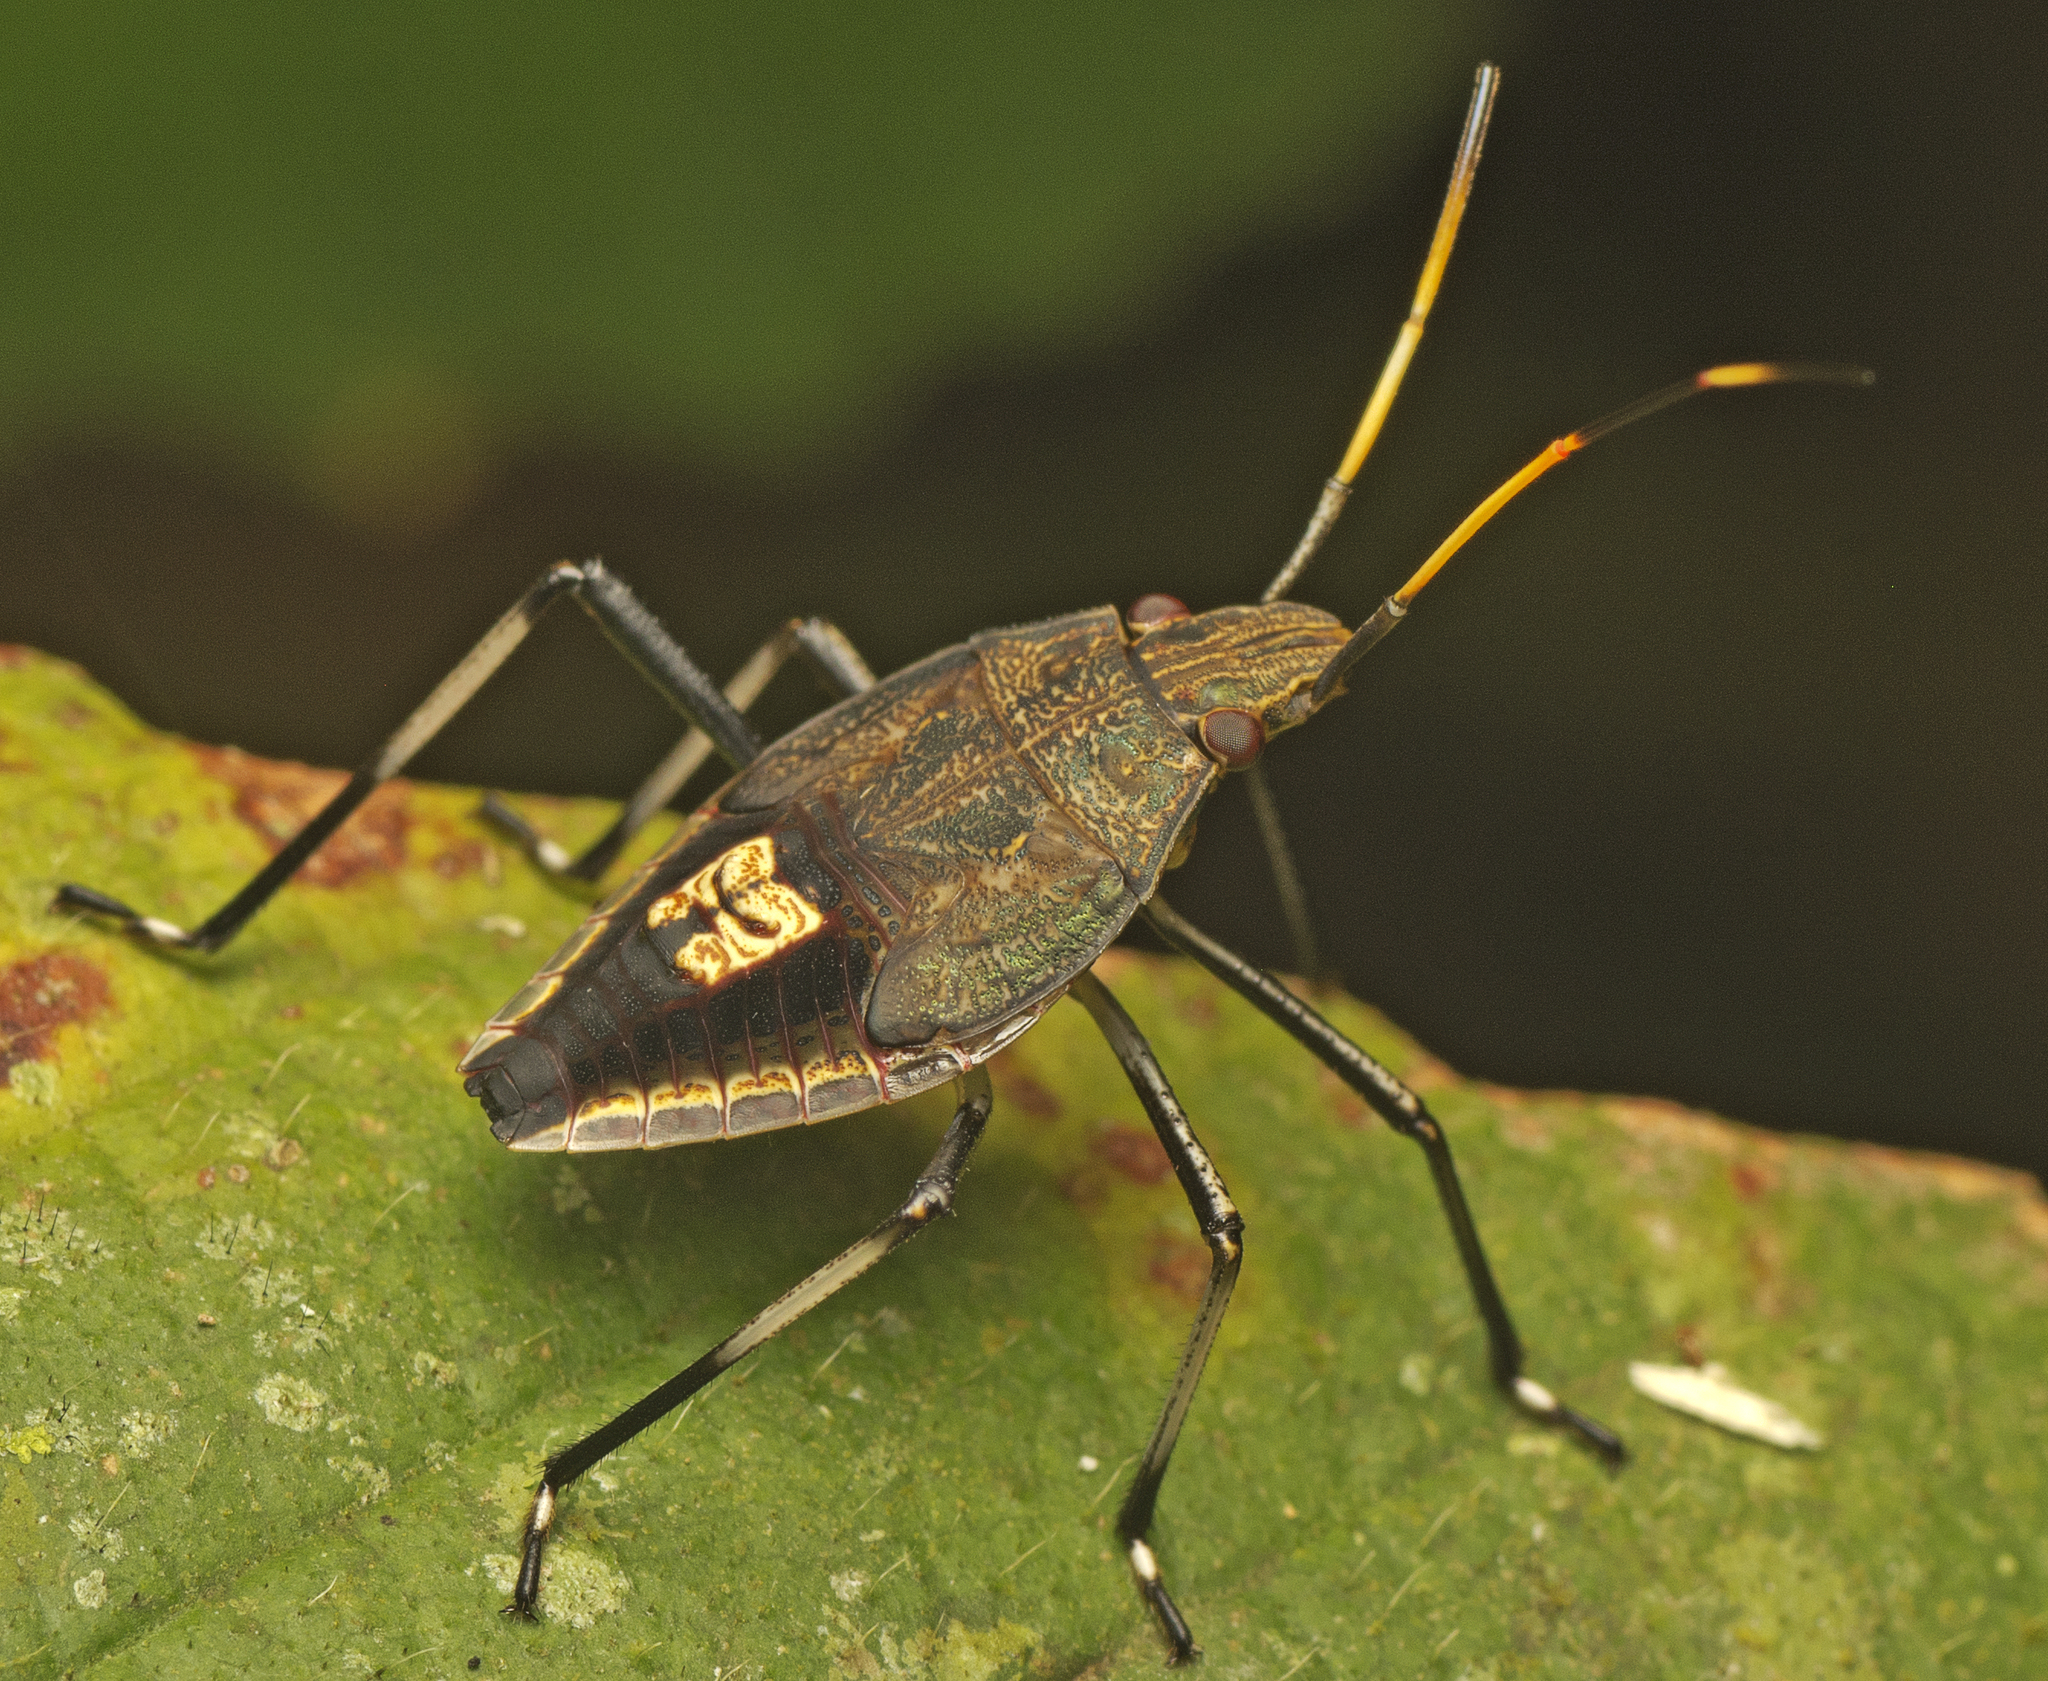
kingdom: Animalia
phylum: Arthropoda
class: Insecta
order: Hemiptera
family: Pentatomidae
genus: Poecilometis
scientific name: Poecilometis
